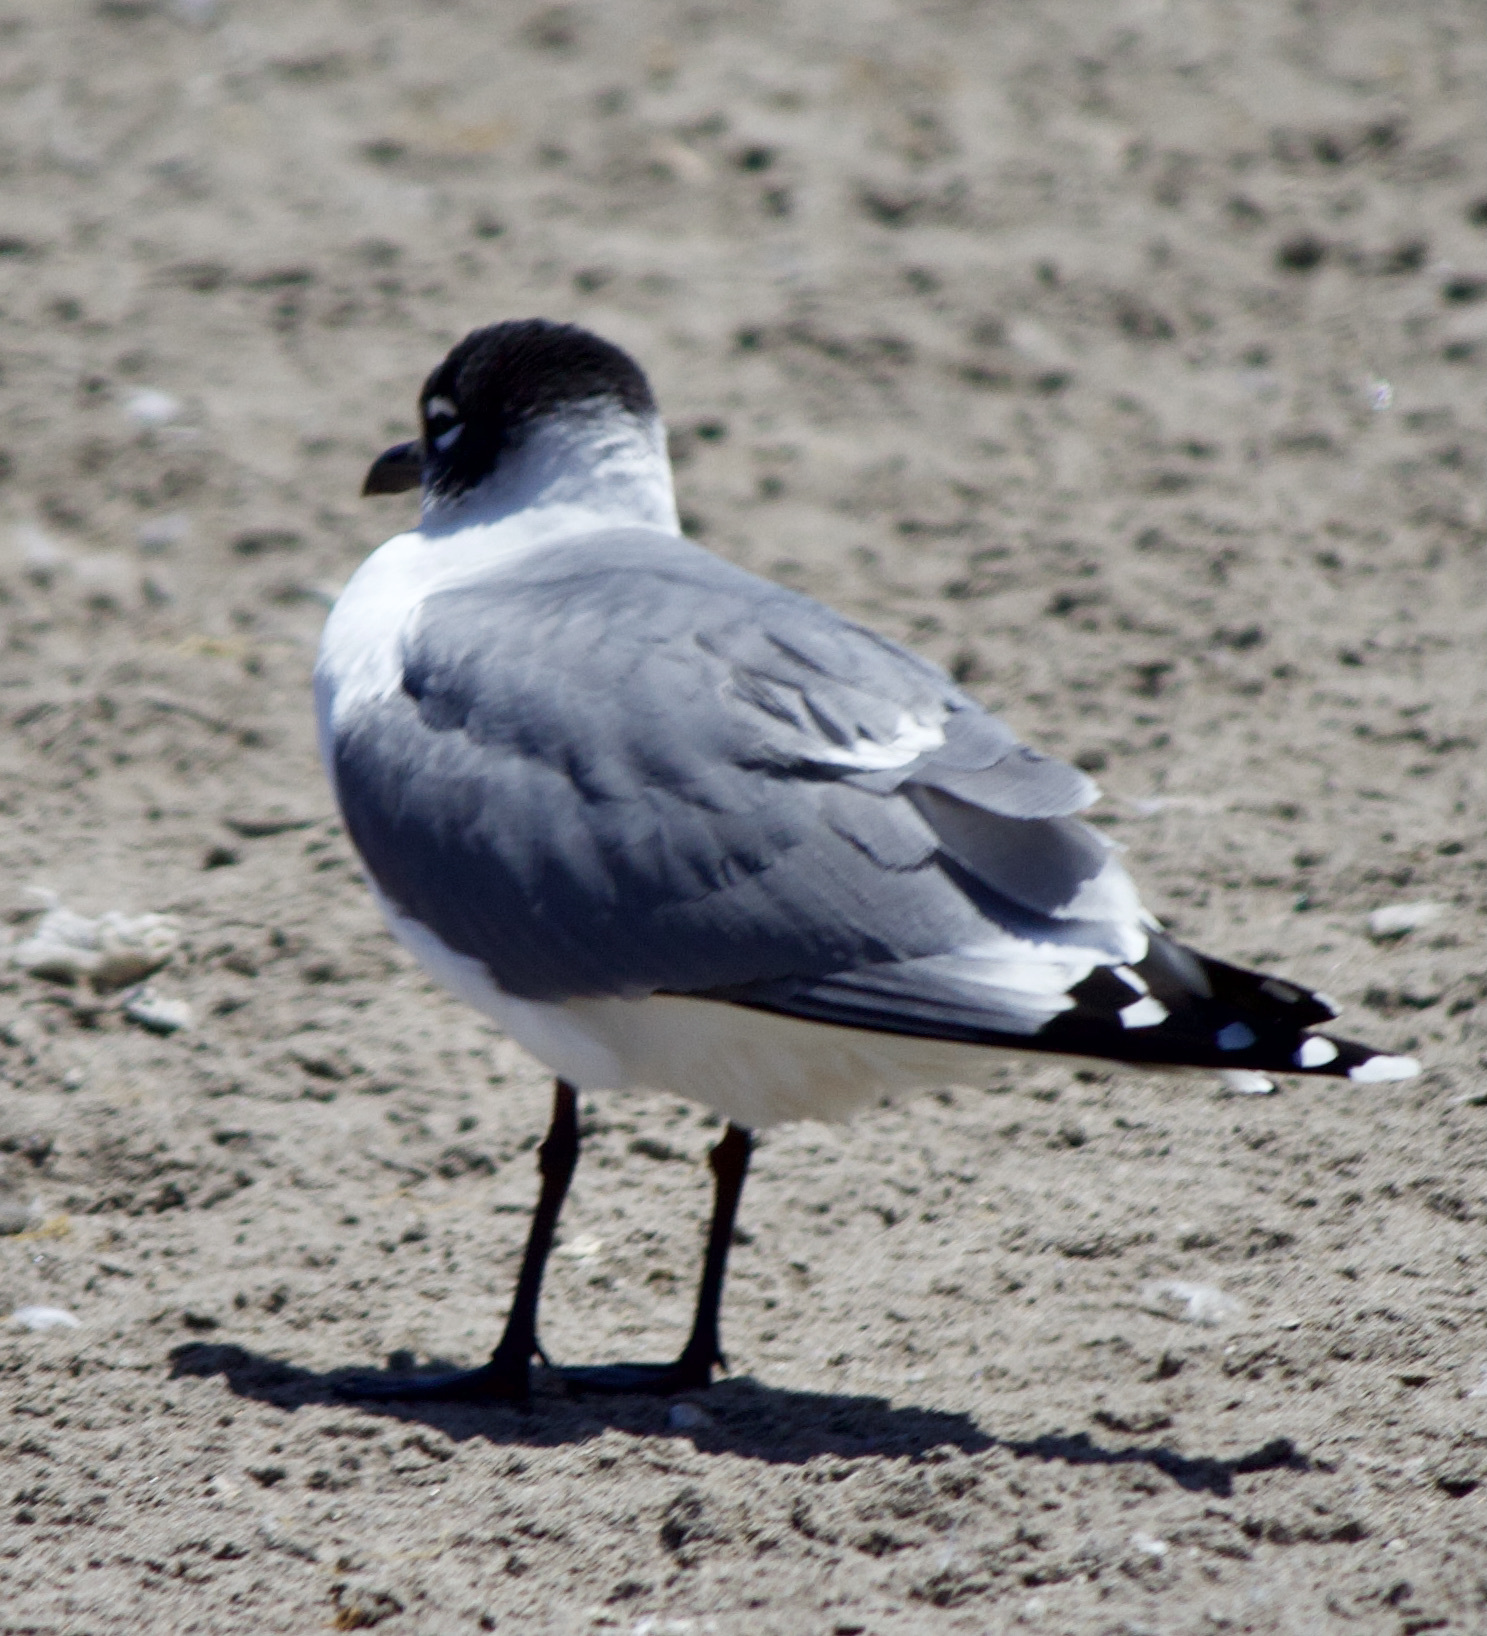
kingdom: Animalia
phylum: Chordata
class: Aves
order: Charadriiformes
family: Laridae
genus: Leucophaeus
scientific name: Leucophaeus pipixcan
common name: Franklin's gull
